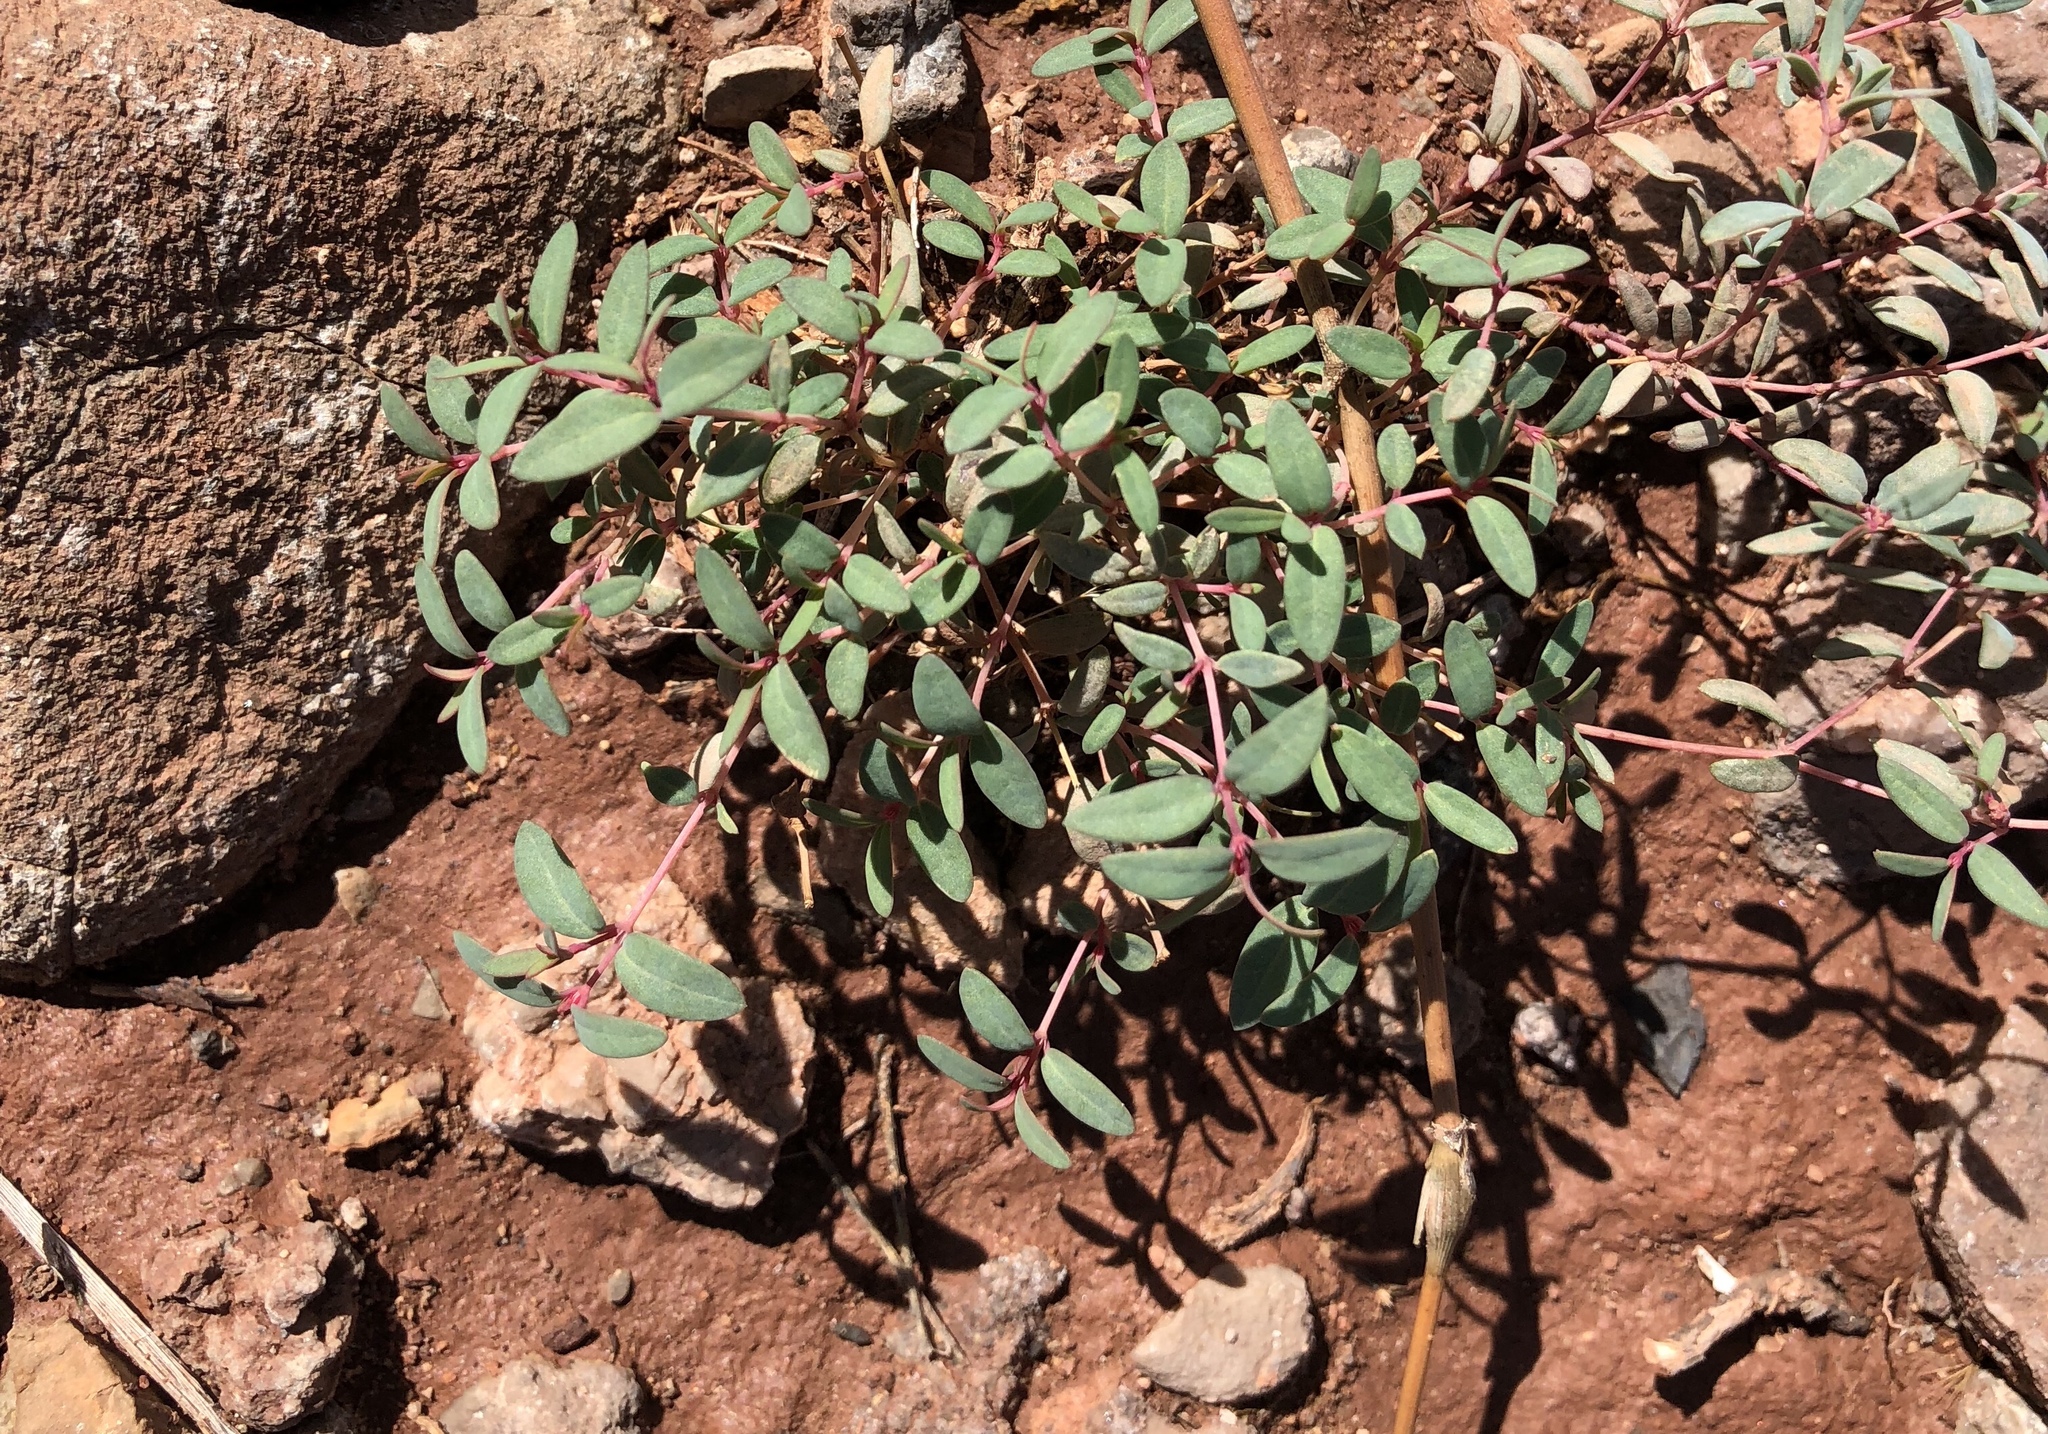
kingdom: Plantae
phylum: Tracheophyta
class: Magnoliopsida
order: Malpighiales
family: Euphorbiaceae
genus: Euphorbia
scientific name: Euphorbia chaetocalyx
